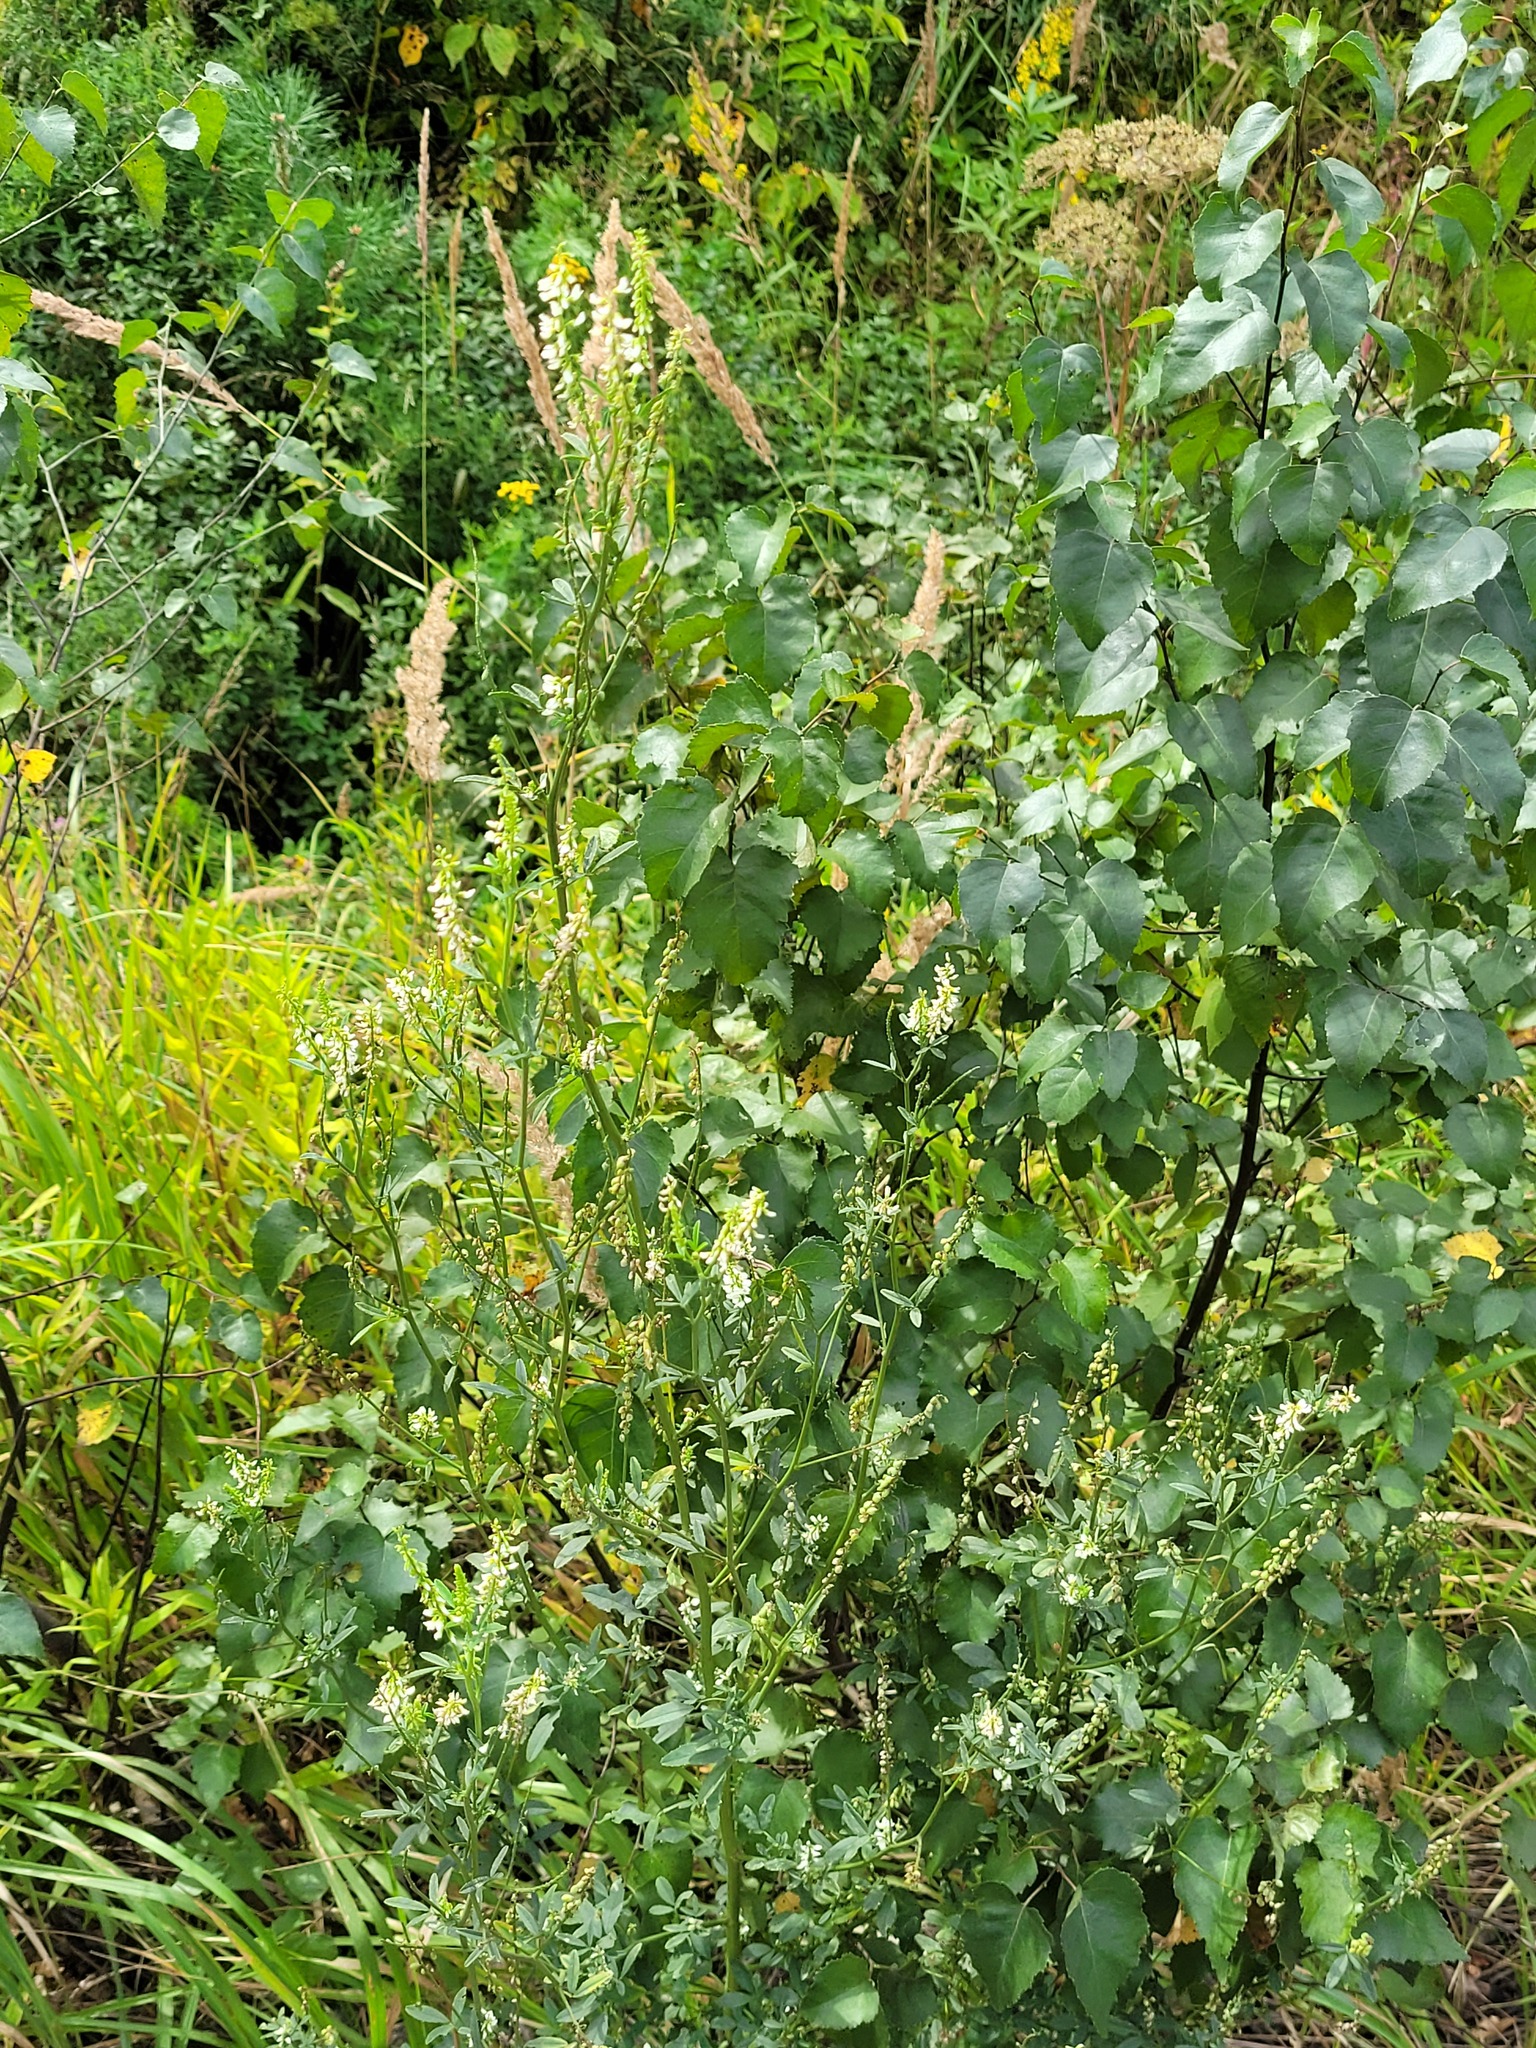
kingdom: Plantae
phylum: Tracheophyta
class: Magnoliopsida
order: Fabales
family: Fabaceae
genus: Melilotus
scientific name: Melilotus albus
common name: White melilot
